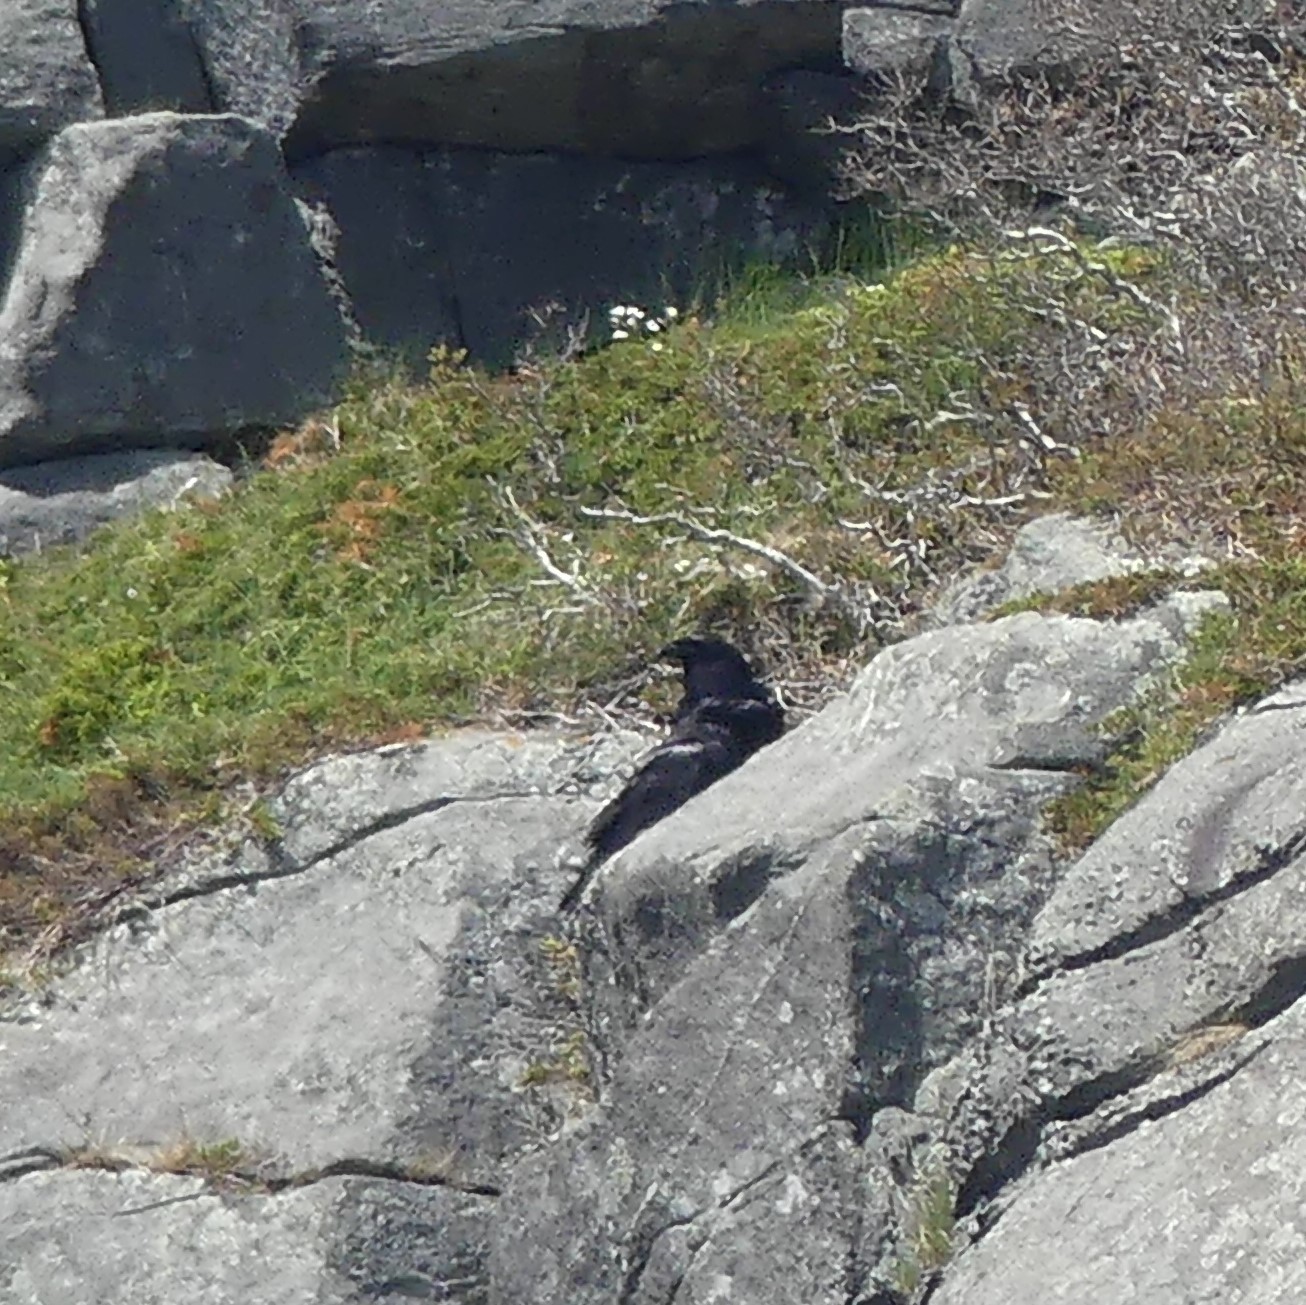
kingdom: Animalia
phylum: Chordata
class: Aves
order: Passeriformes
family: Corvidae
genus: Corvus
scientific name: Corvus corax
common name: Common raven
